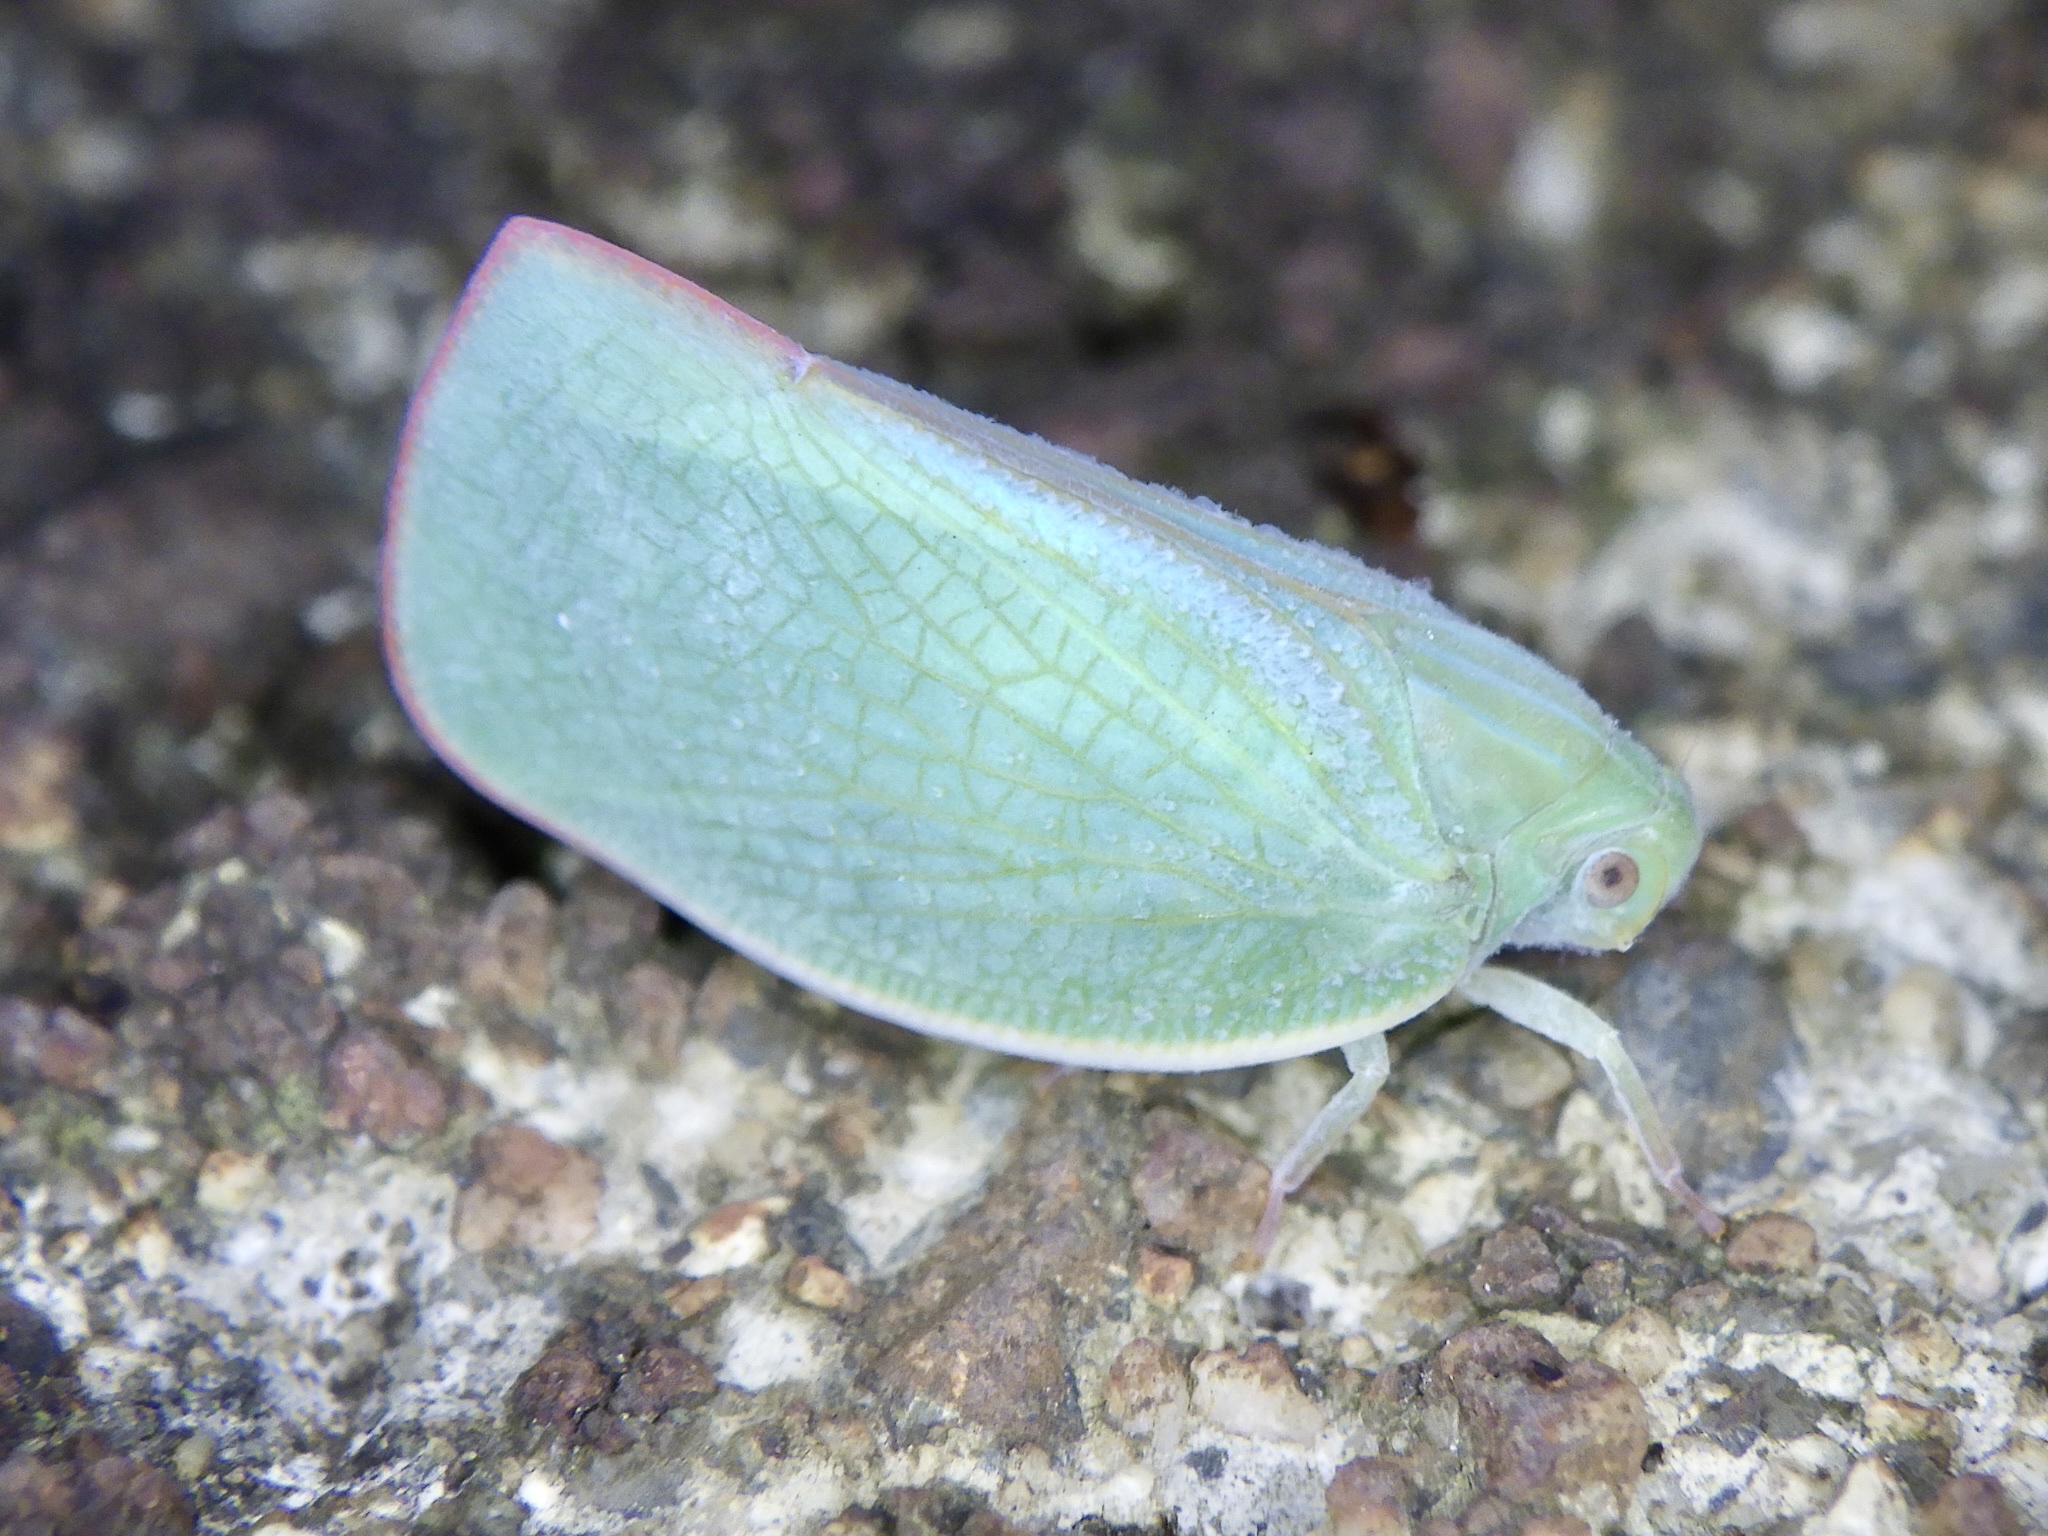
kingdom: Animalia
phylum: Arthropoda
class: Insecta
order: Hemiptera
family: Flatidae
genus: Geisha
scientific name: Geisha distinctissima
